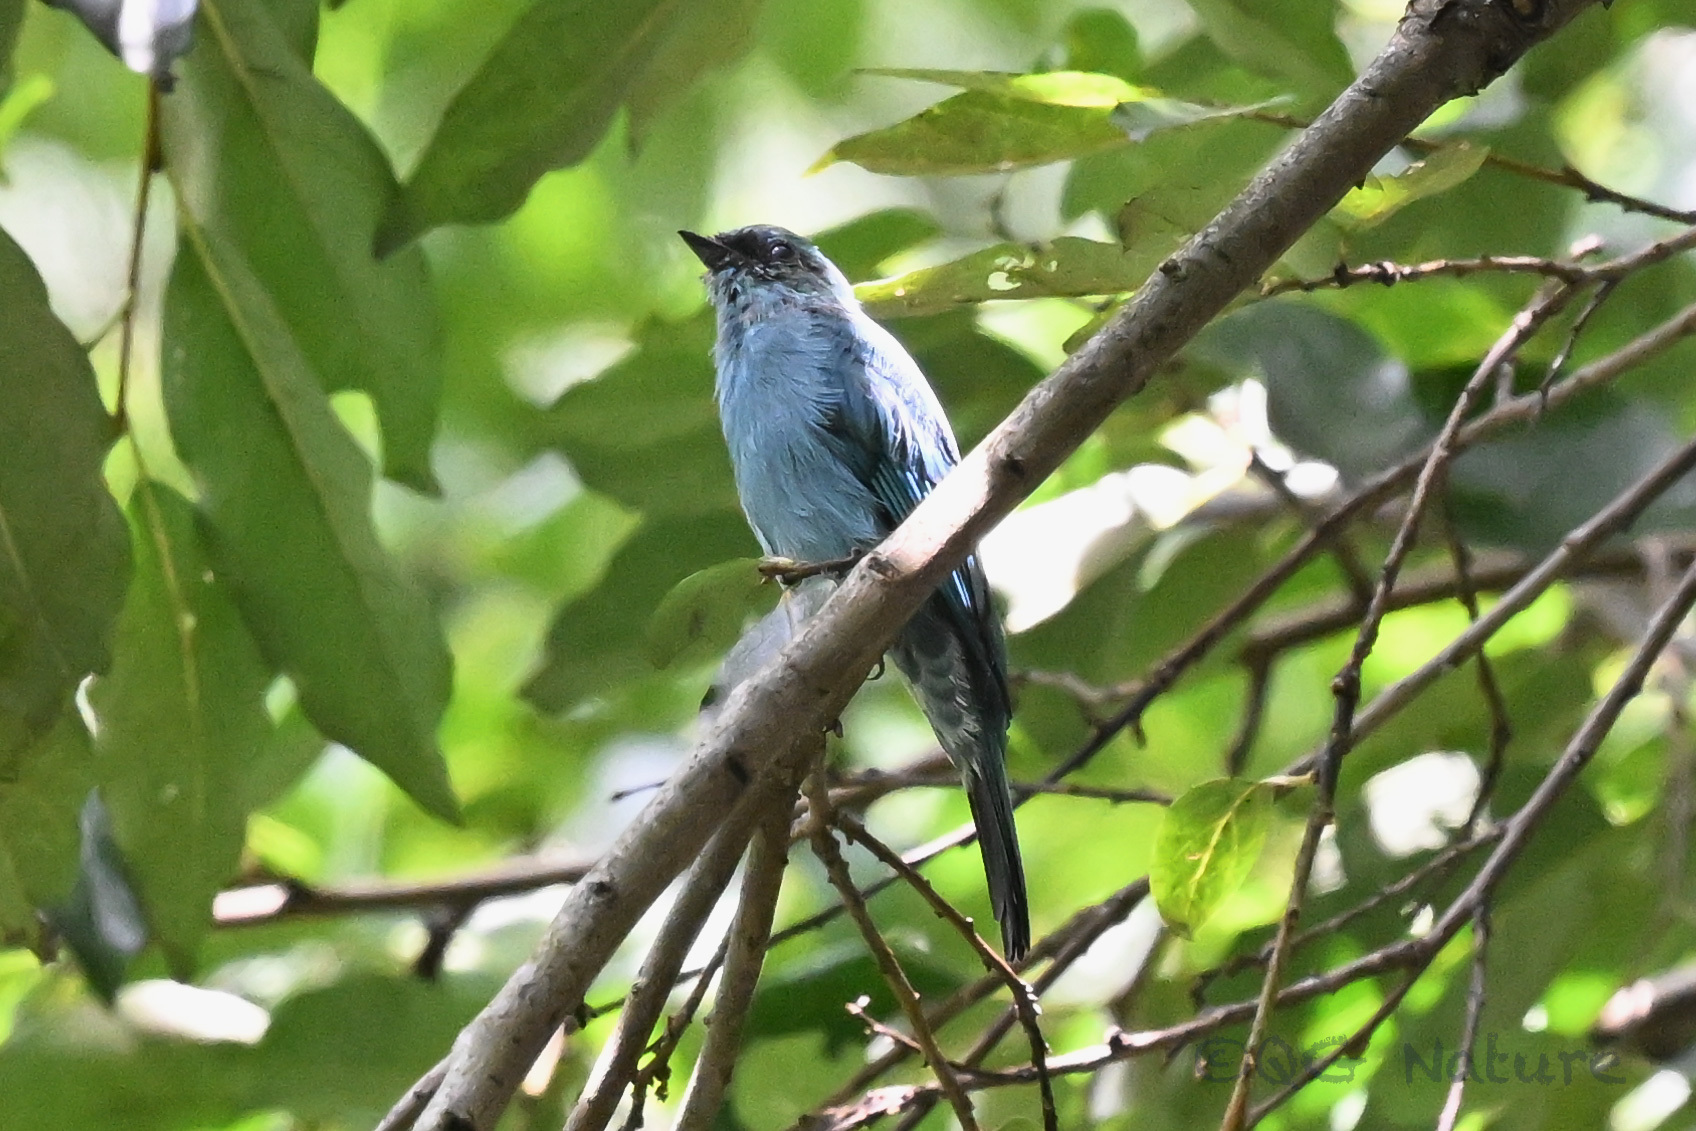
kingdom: Animalia
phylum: Chordata
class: Aves
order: Passeriformes
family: Muscicapidae
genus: Eumyias
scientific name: Eumyias thalassinus
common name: Verditer flycatcher
